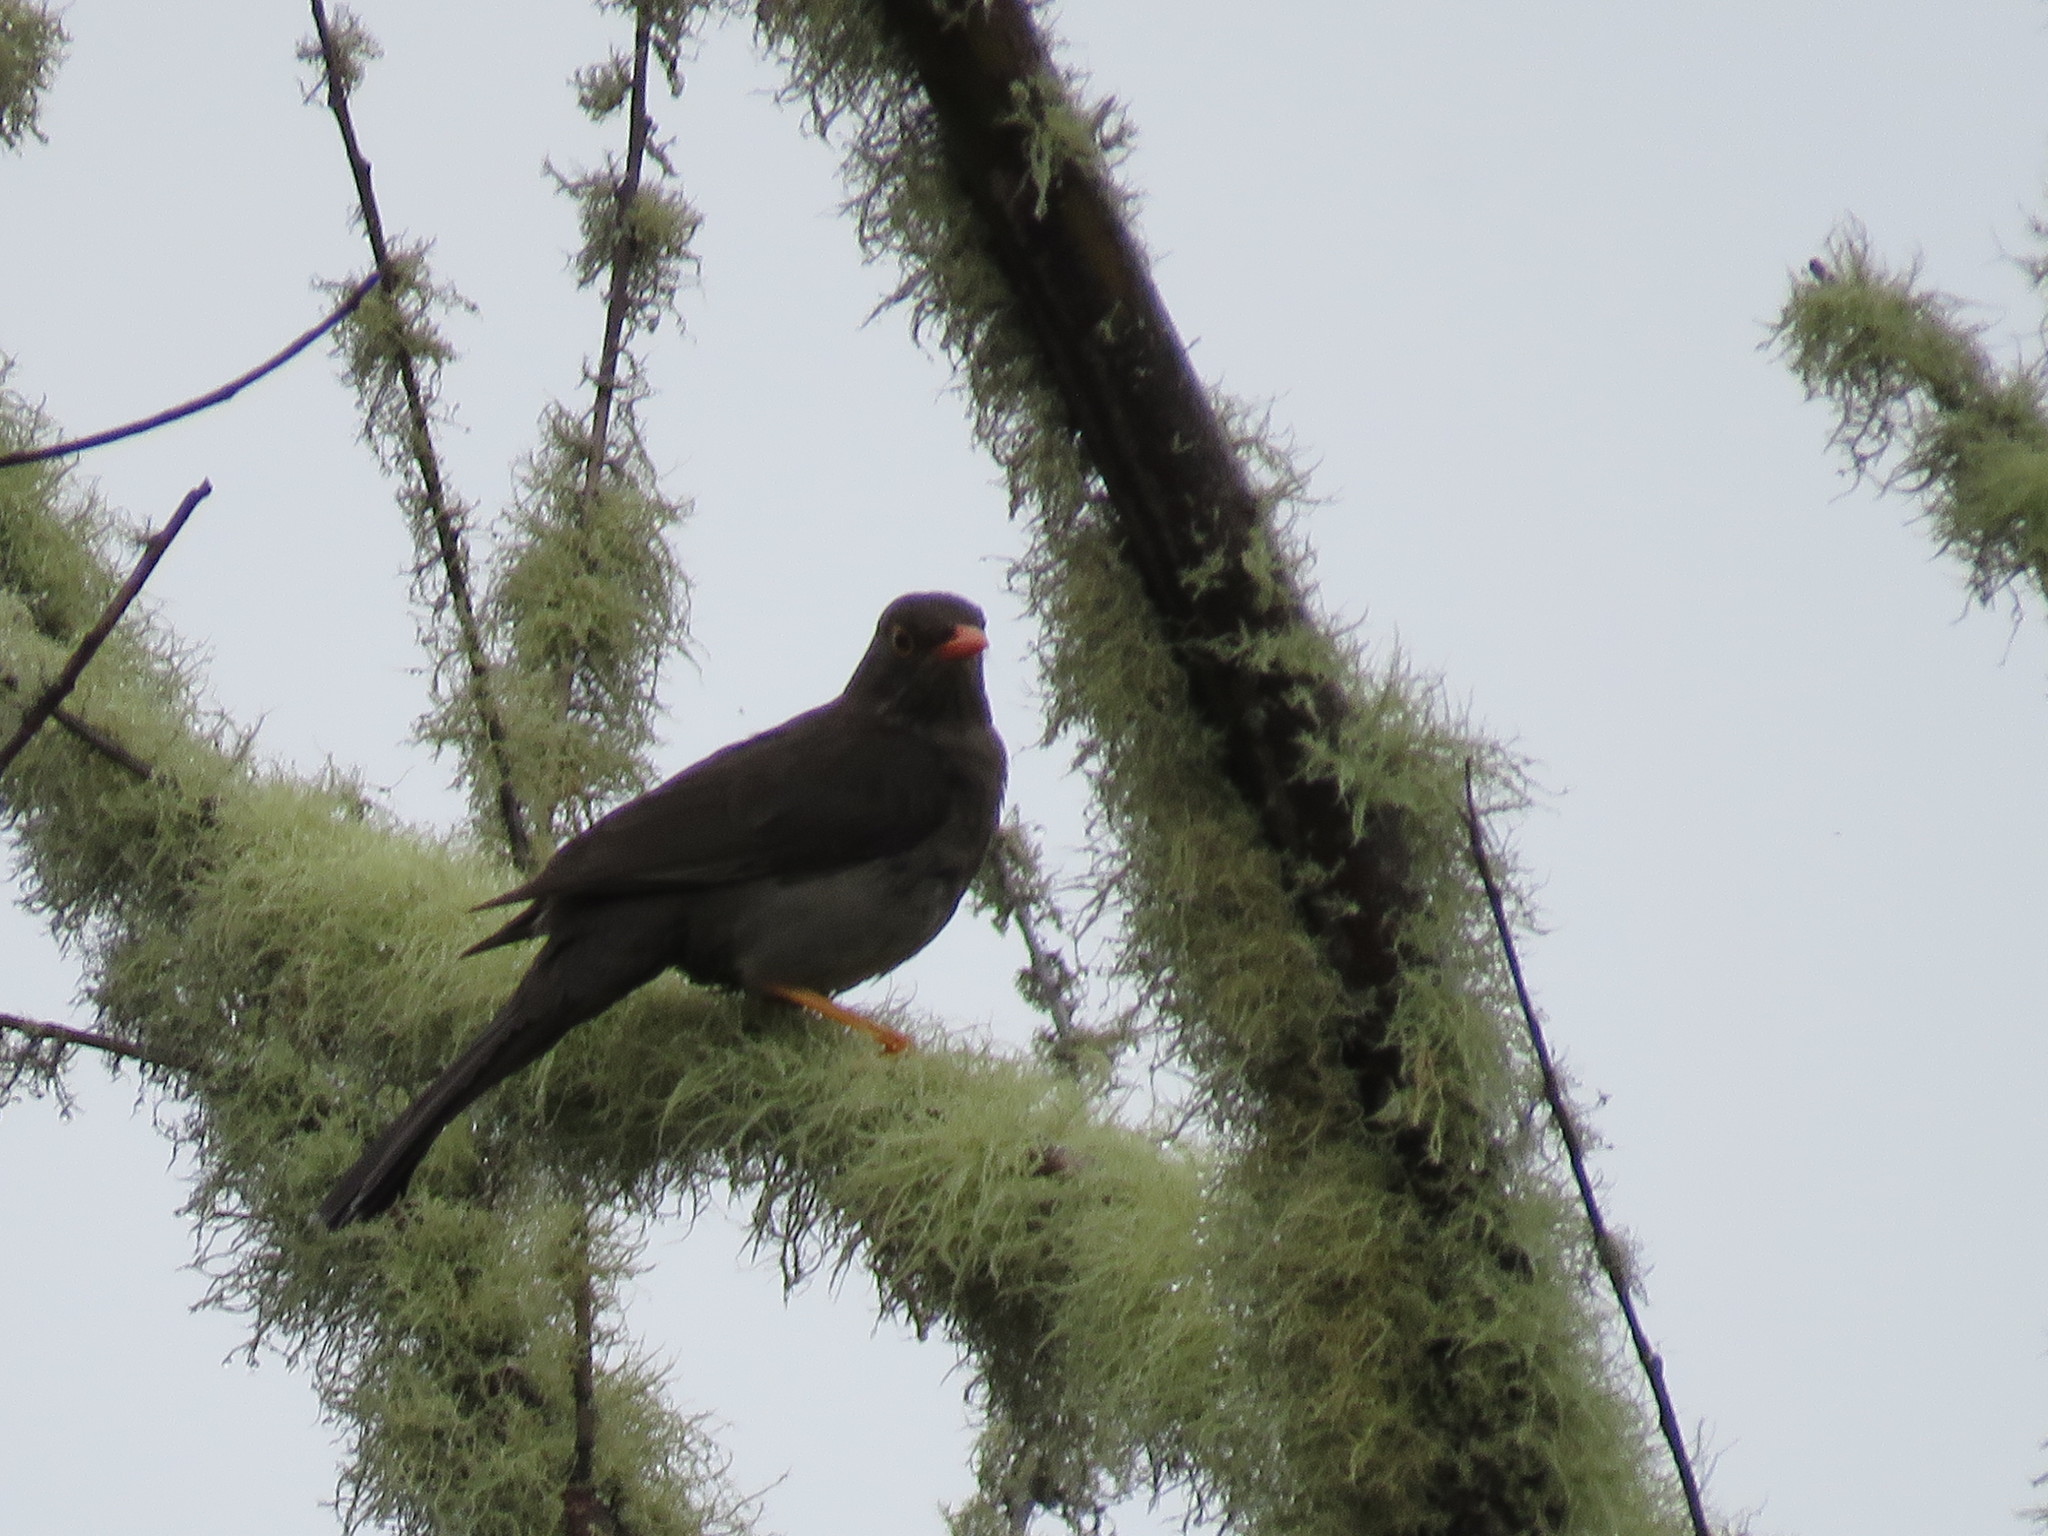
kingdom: Animalia
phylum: Chordata
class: Aves
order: Passeriformes
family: Turdidae
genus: Turdus
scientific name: Turdus fuscater
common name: Great thrush
